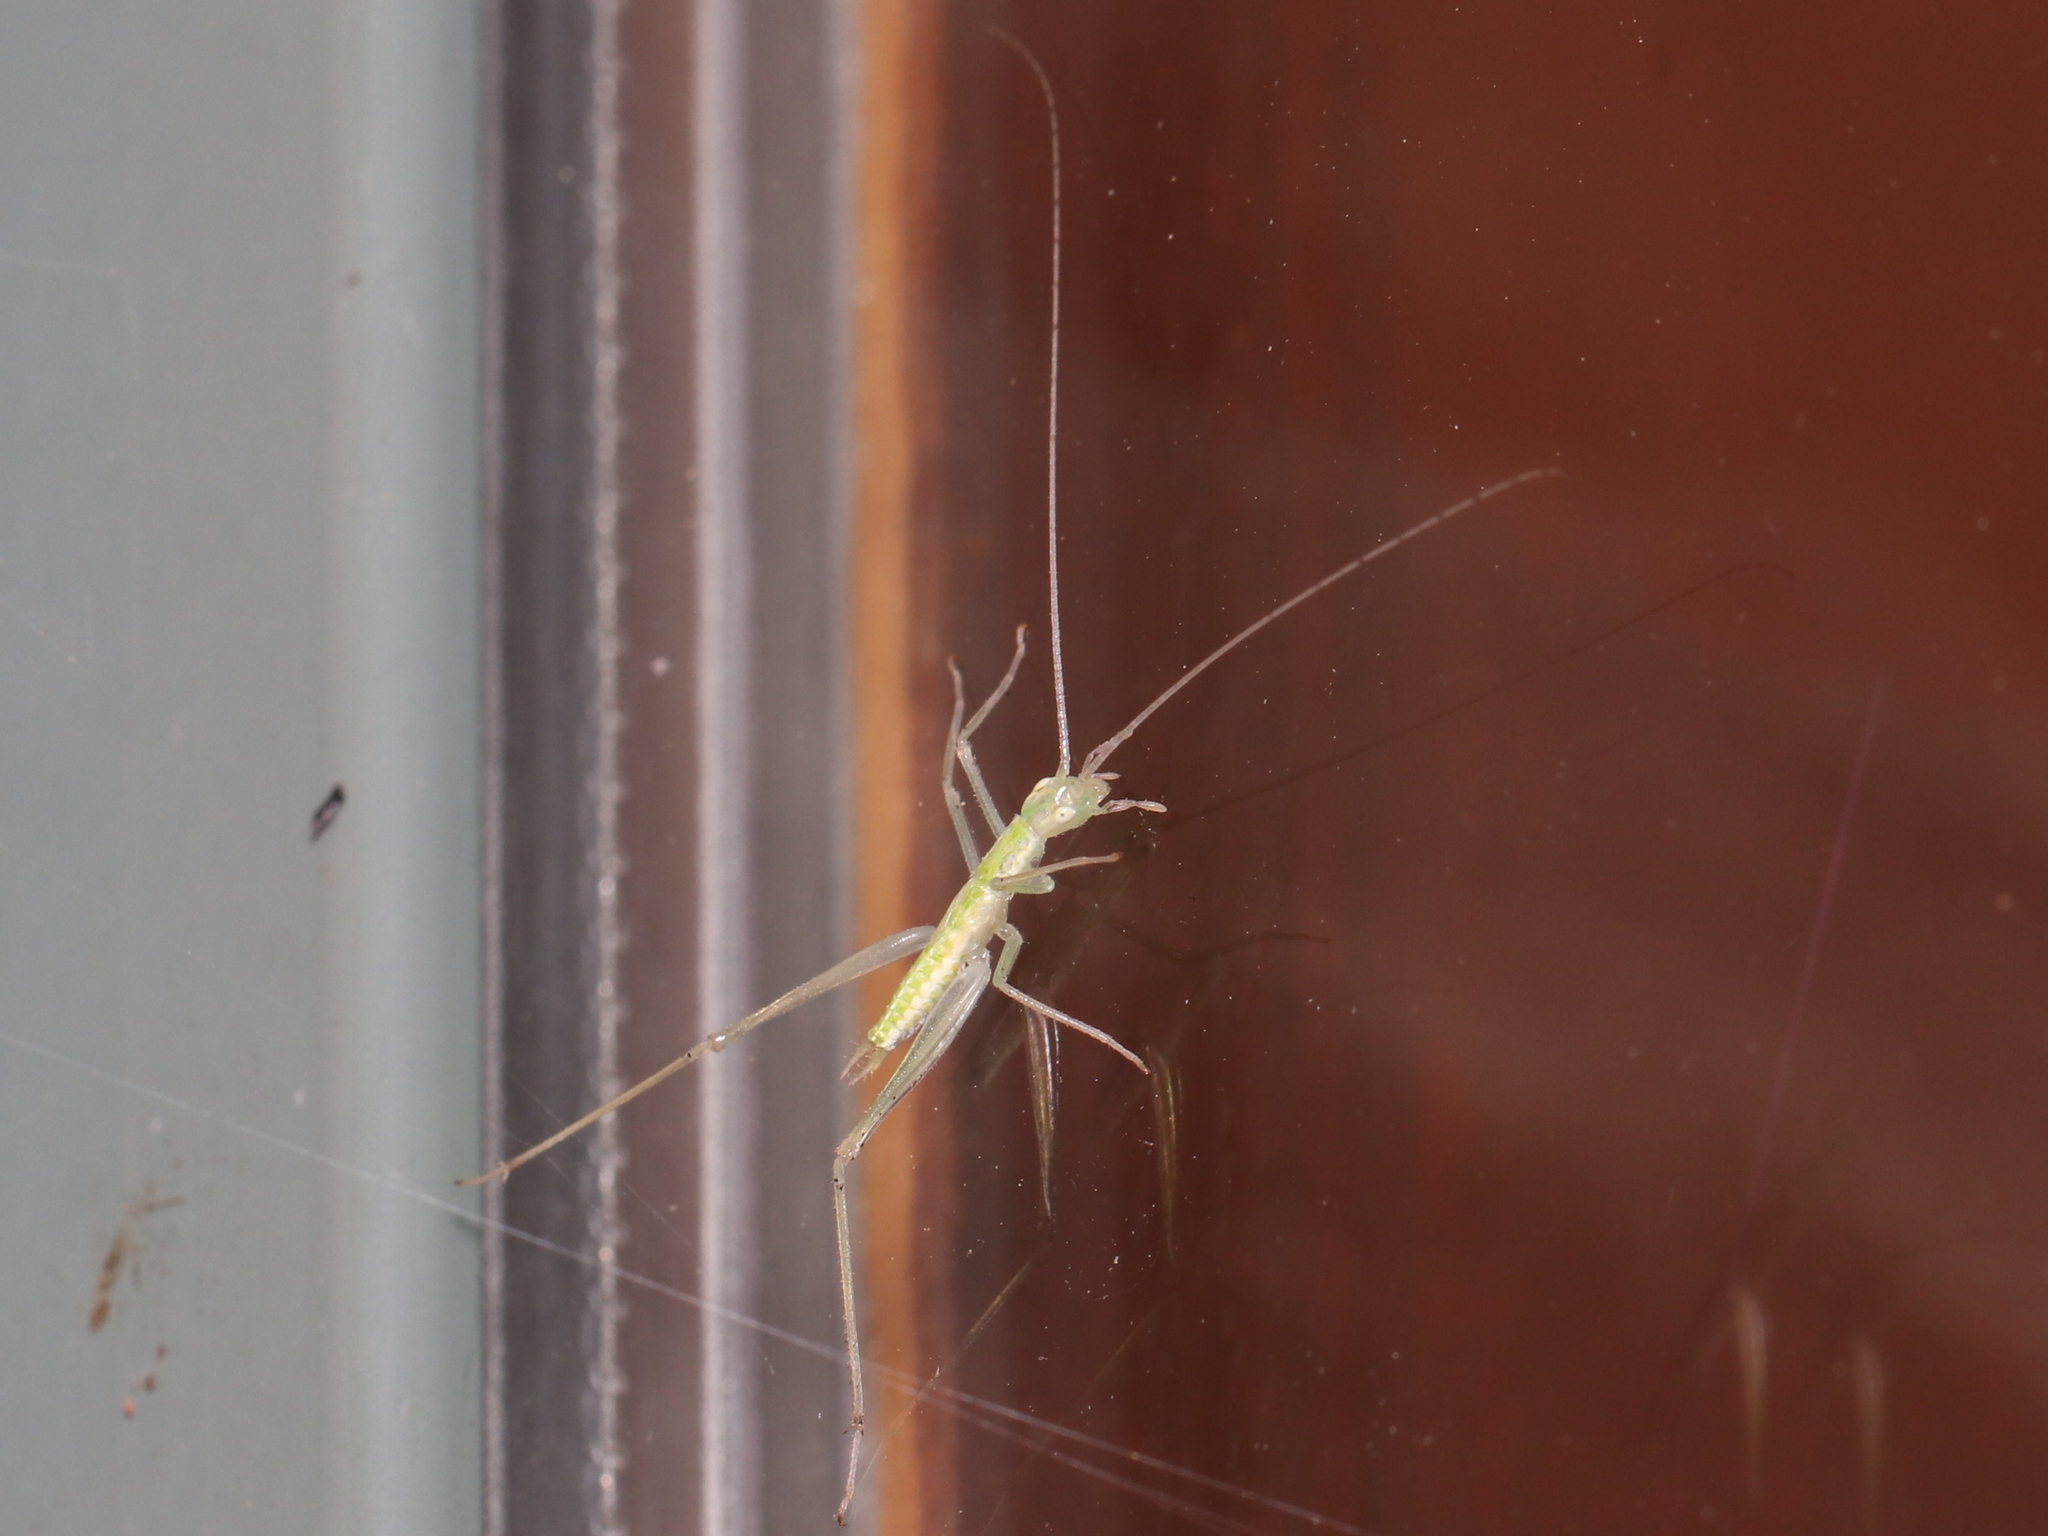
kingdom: Animalia
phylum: Arthropoda
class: Insecta
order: Orthoptera
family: Gryllidae
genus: Oecanthus
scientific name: Oecanthus niveus
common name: Narrow-winged tree cricket
